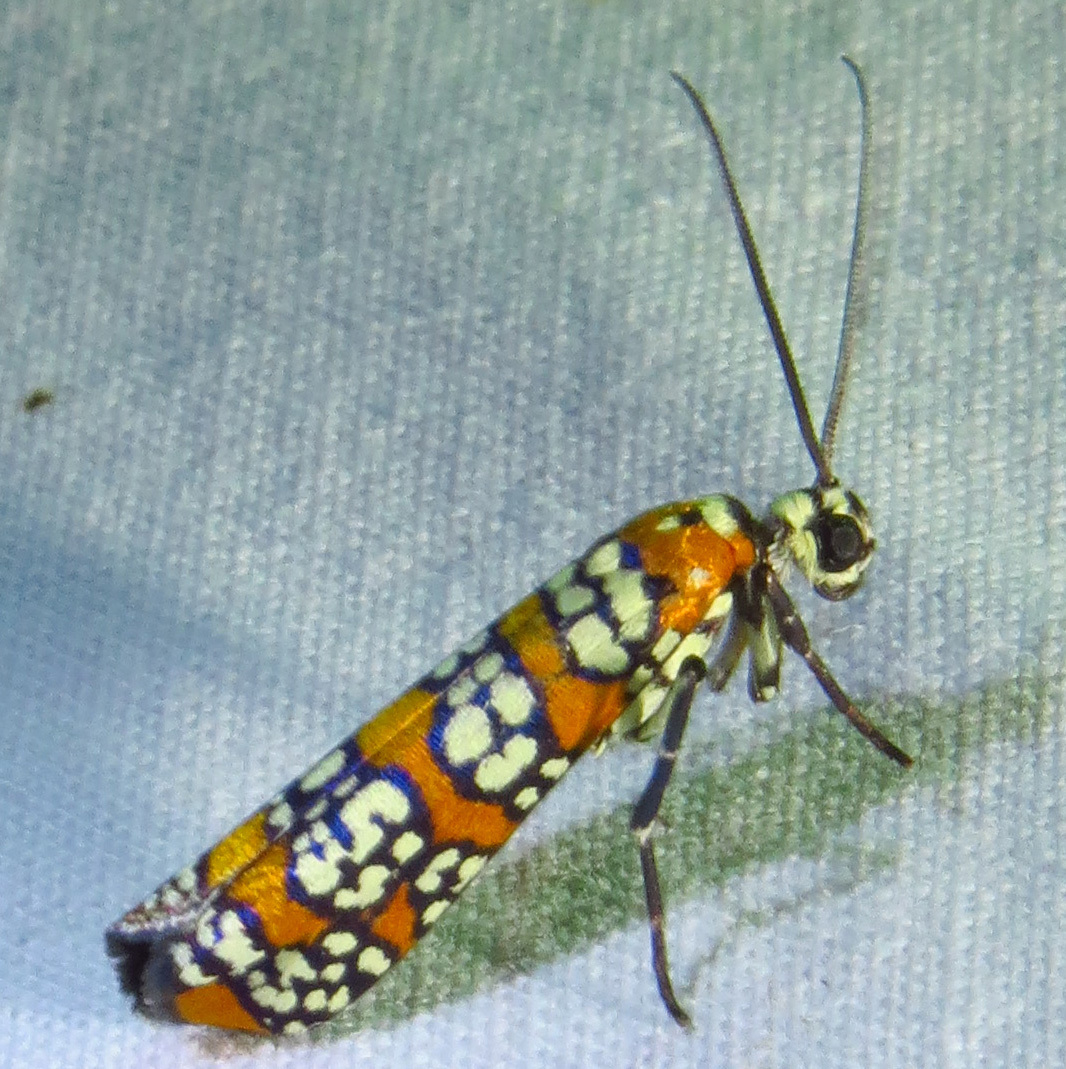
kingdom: Animalia
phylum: Arthropoda
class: Insecta
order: Lepidoptera
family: Attevidae
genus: Atteva
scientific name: Atteva punctella
